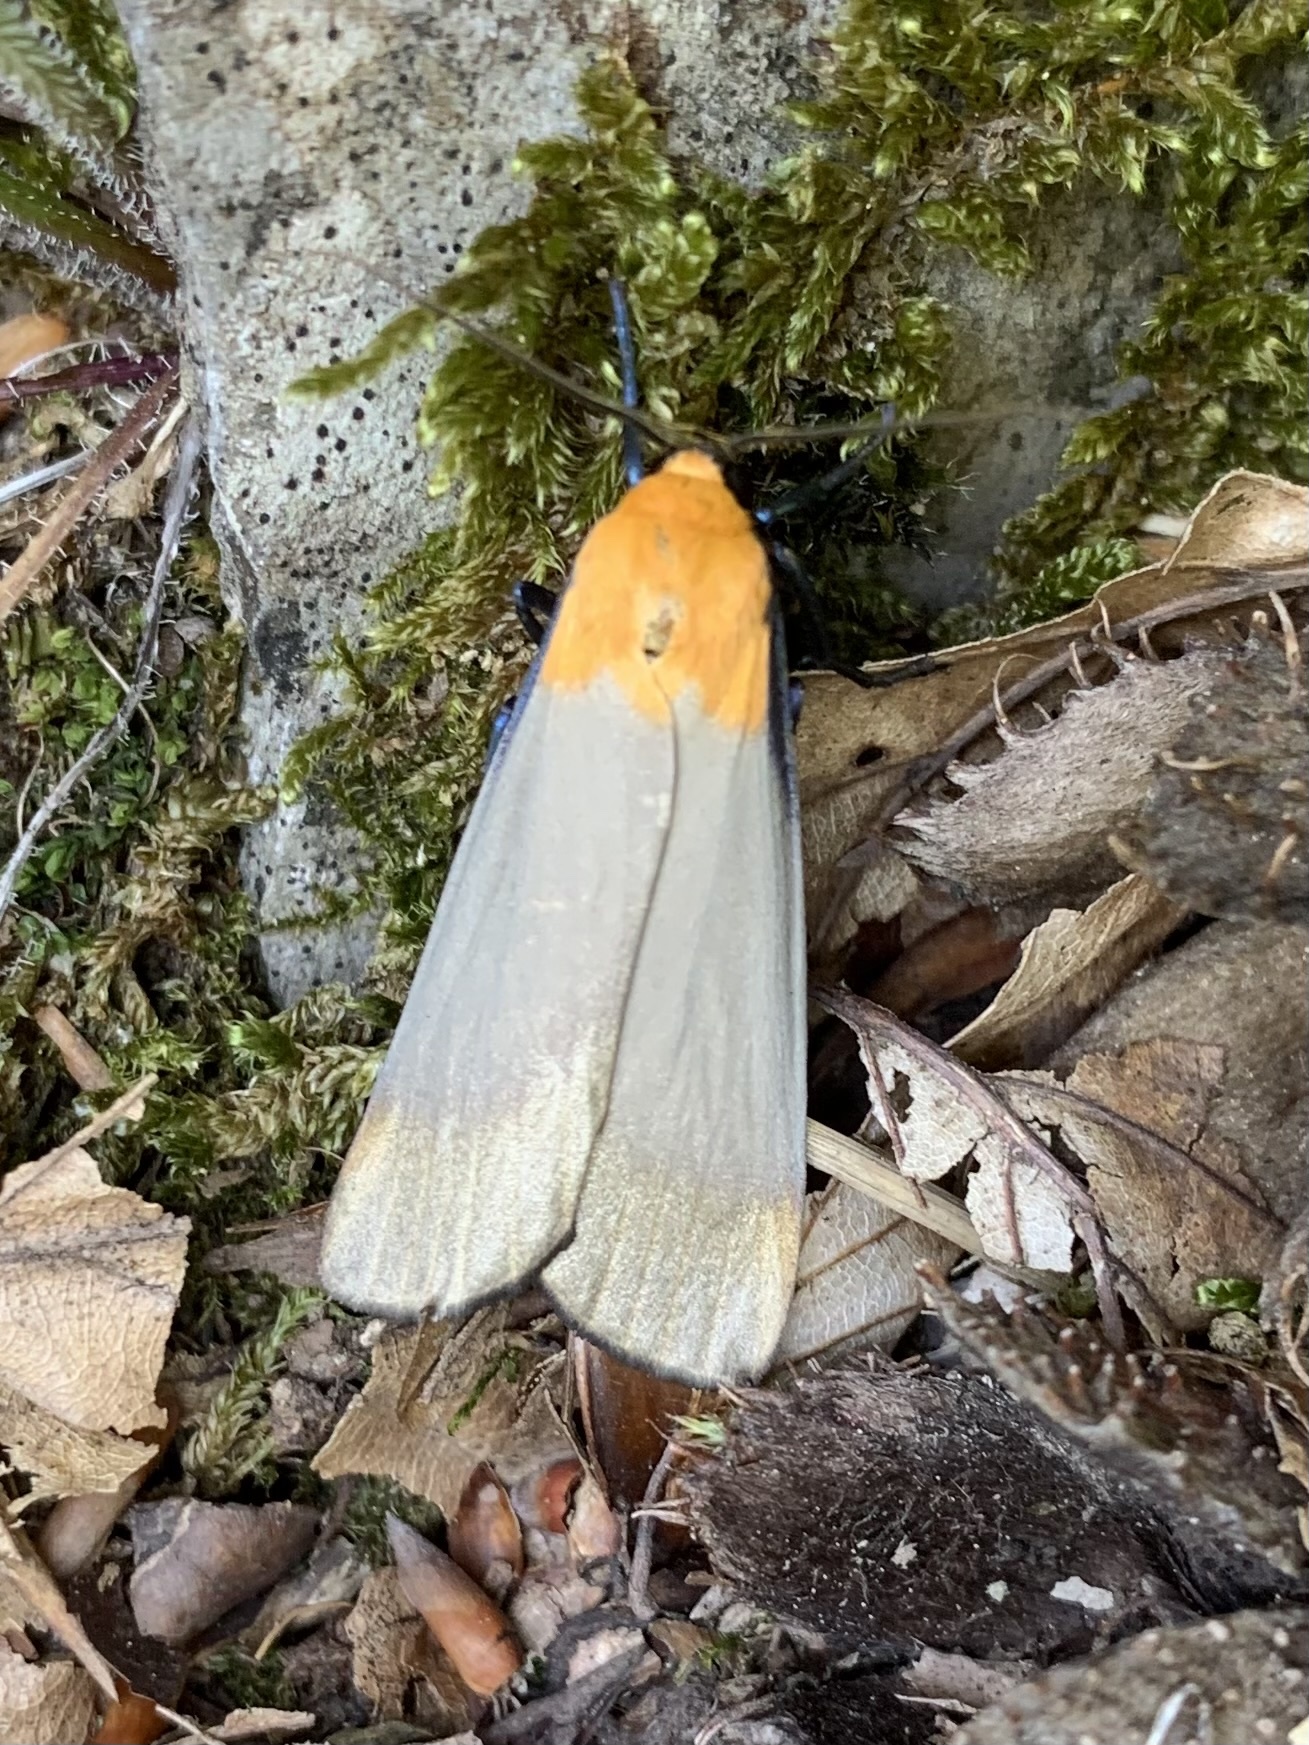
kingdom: Animalia
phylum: Arthropoda
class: Insecta
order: Lepidoptera
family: Erebidae
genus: Lithosia
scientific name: Lithosia quadra
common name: Four-spotted footman
